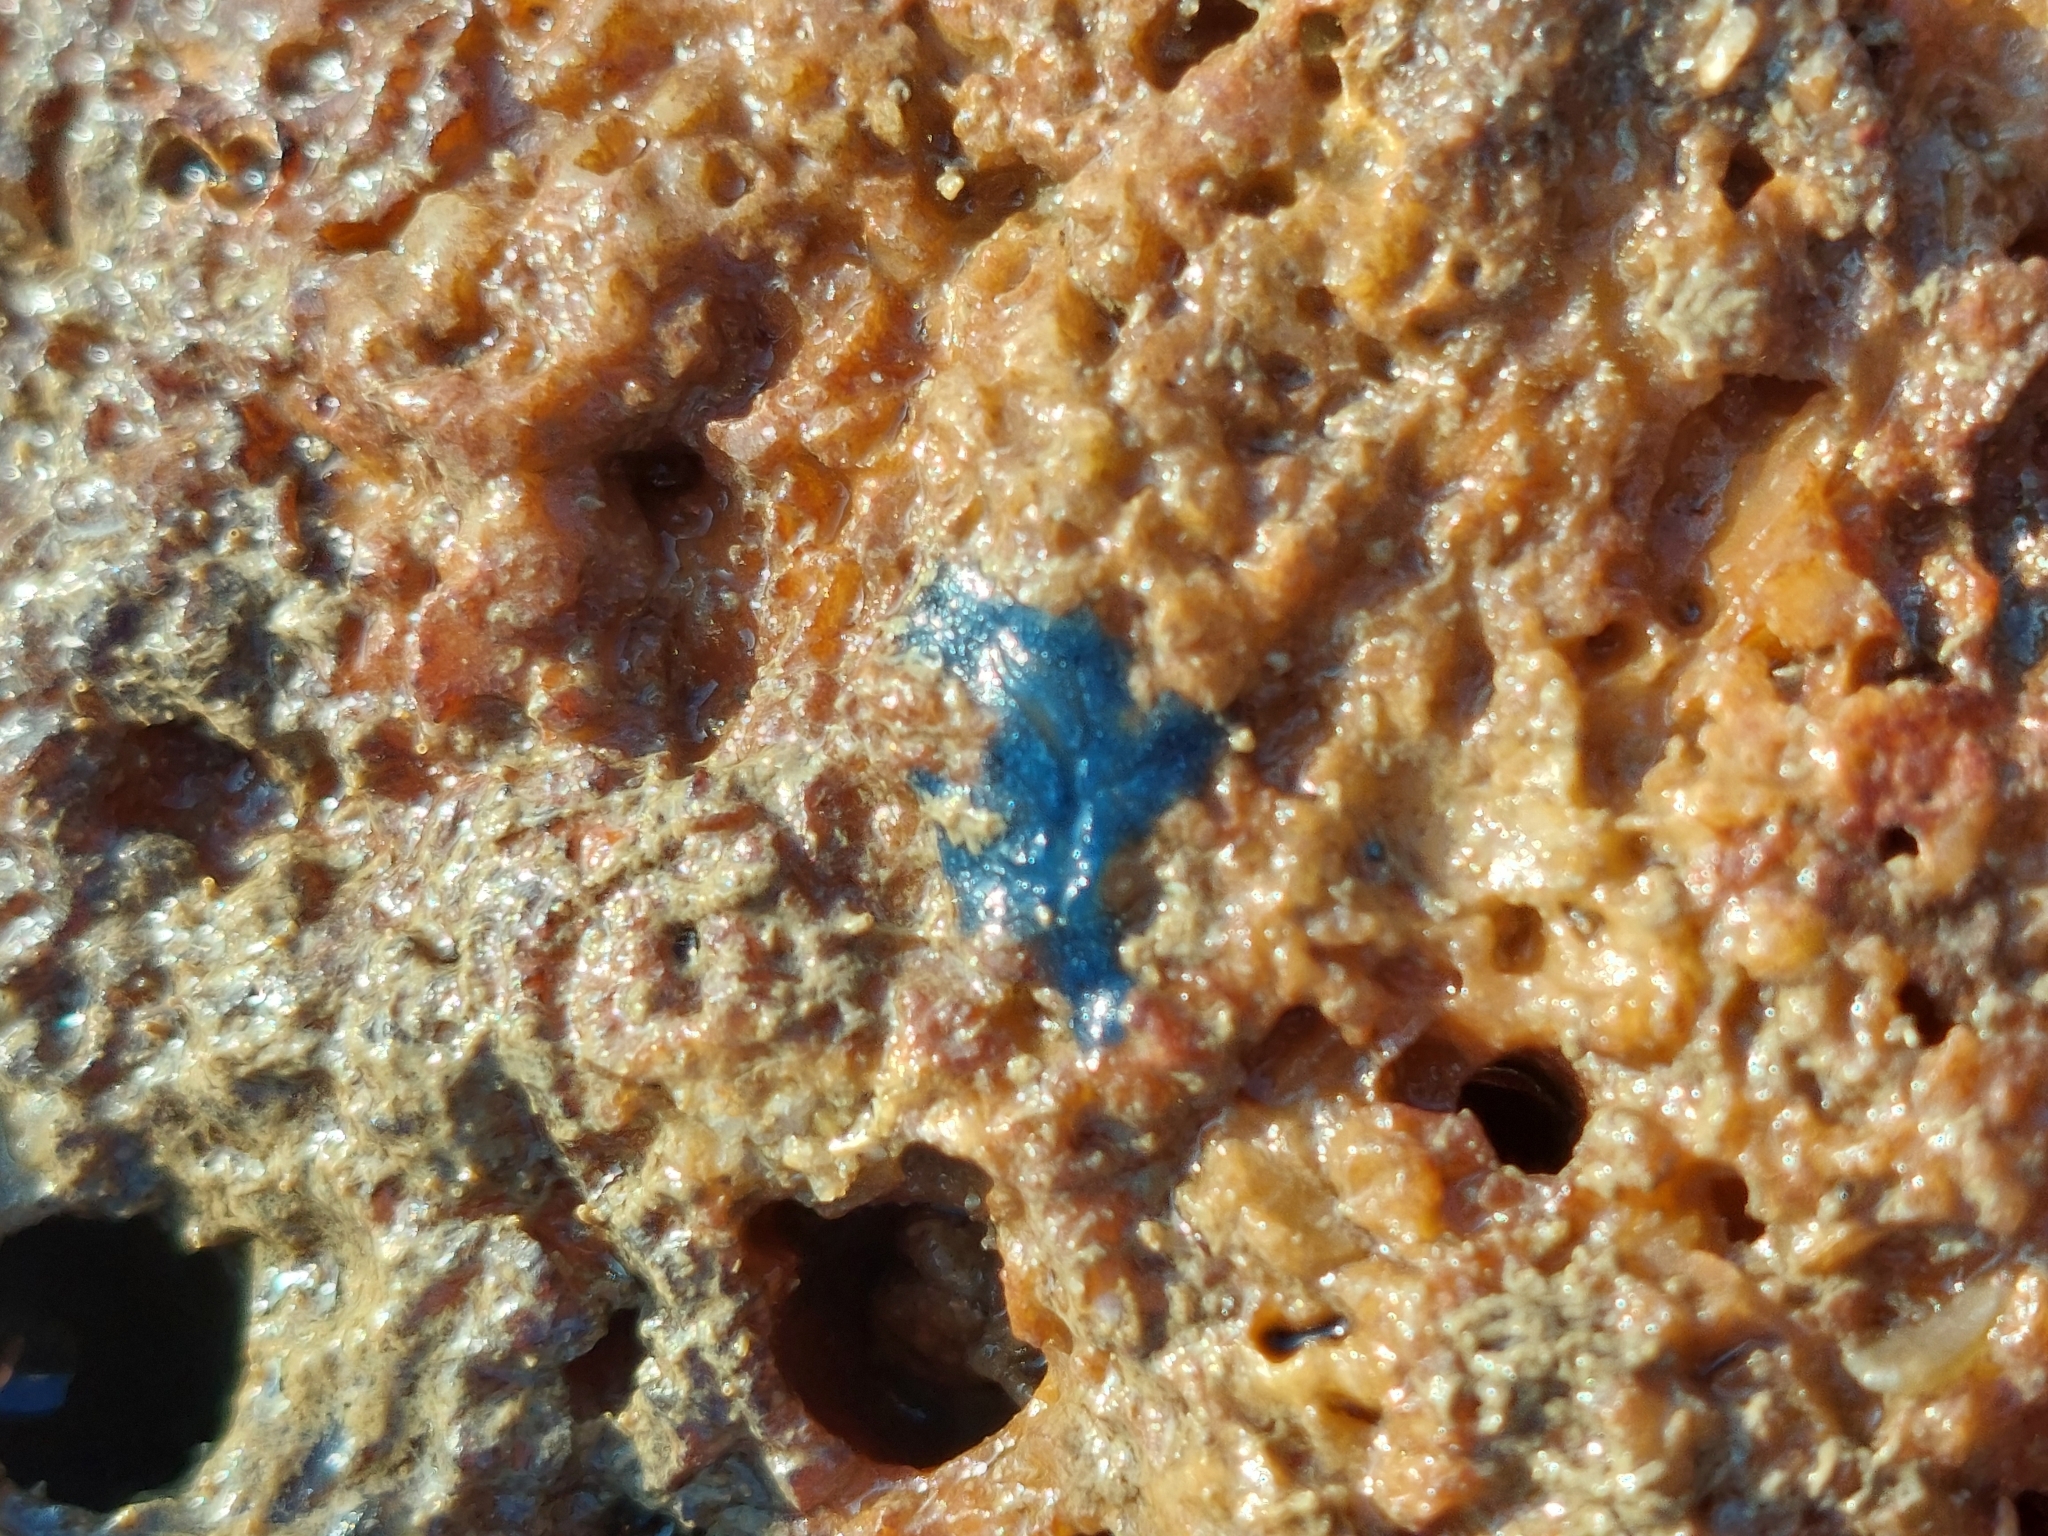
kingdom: Animalia
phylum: Porifera
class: Demospongiae
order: Suberitida
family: Suberitidae
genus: Terpios
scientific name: Terpios gelatinosus
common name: Blue encrusting sponge
